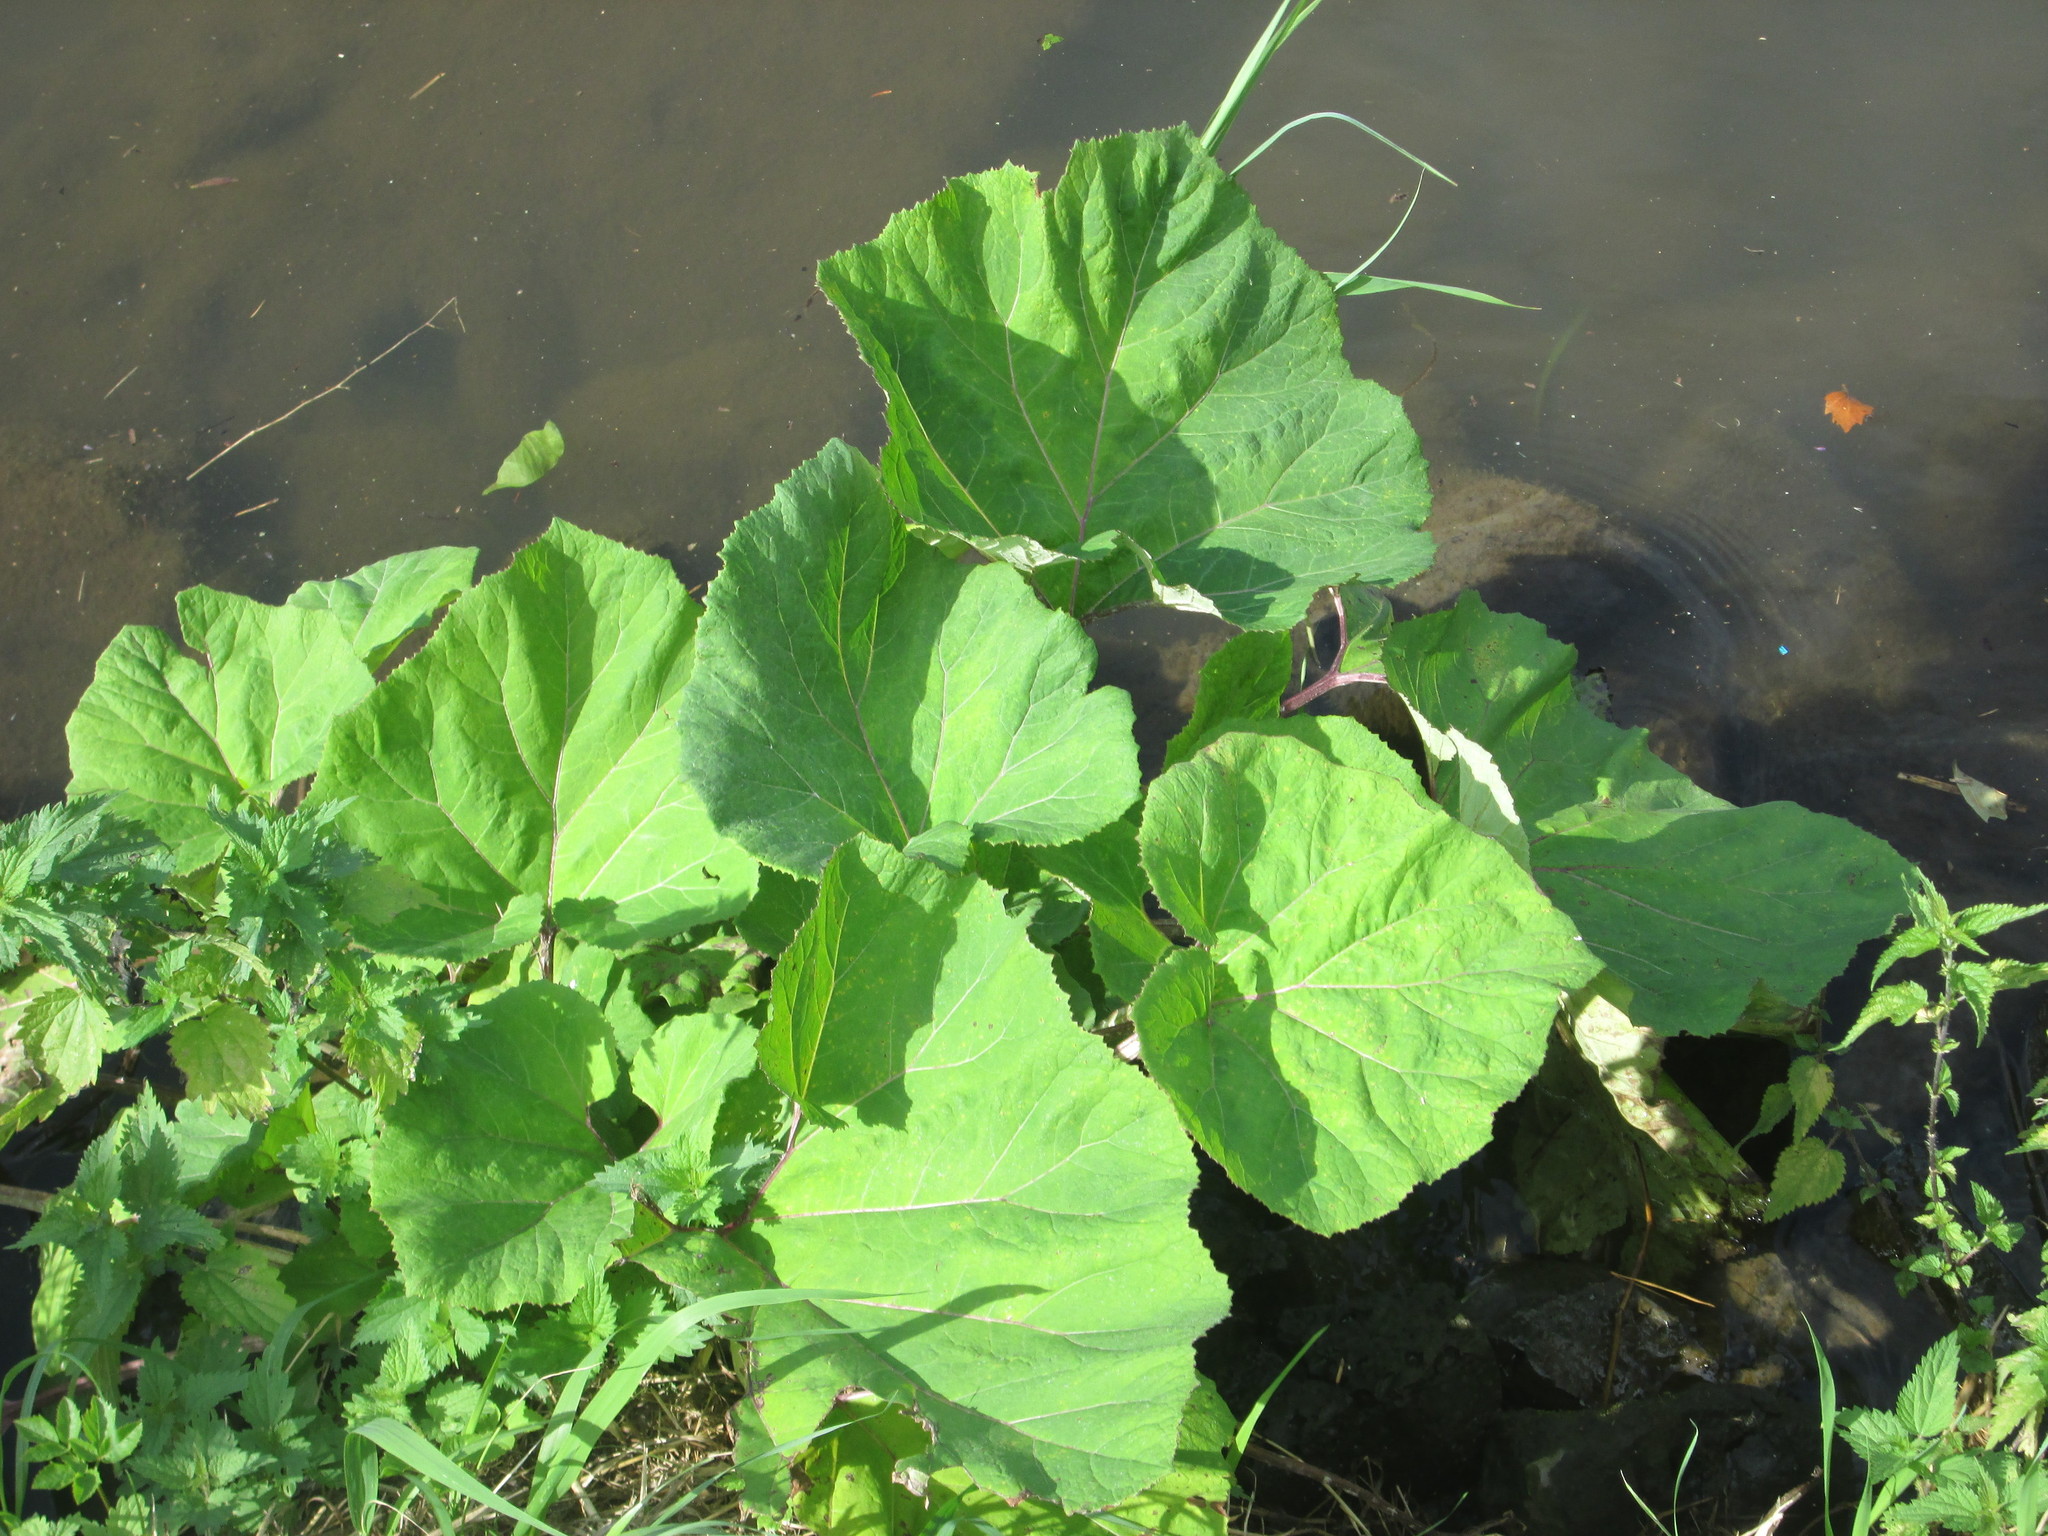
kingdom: Plantae
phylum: Tracheophyta
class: Magnoliopsida
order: Asterales
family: Asteraceae
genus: Petasites
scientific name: Petasites hybridus
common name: Butterbur
